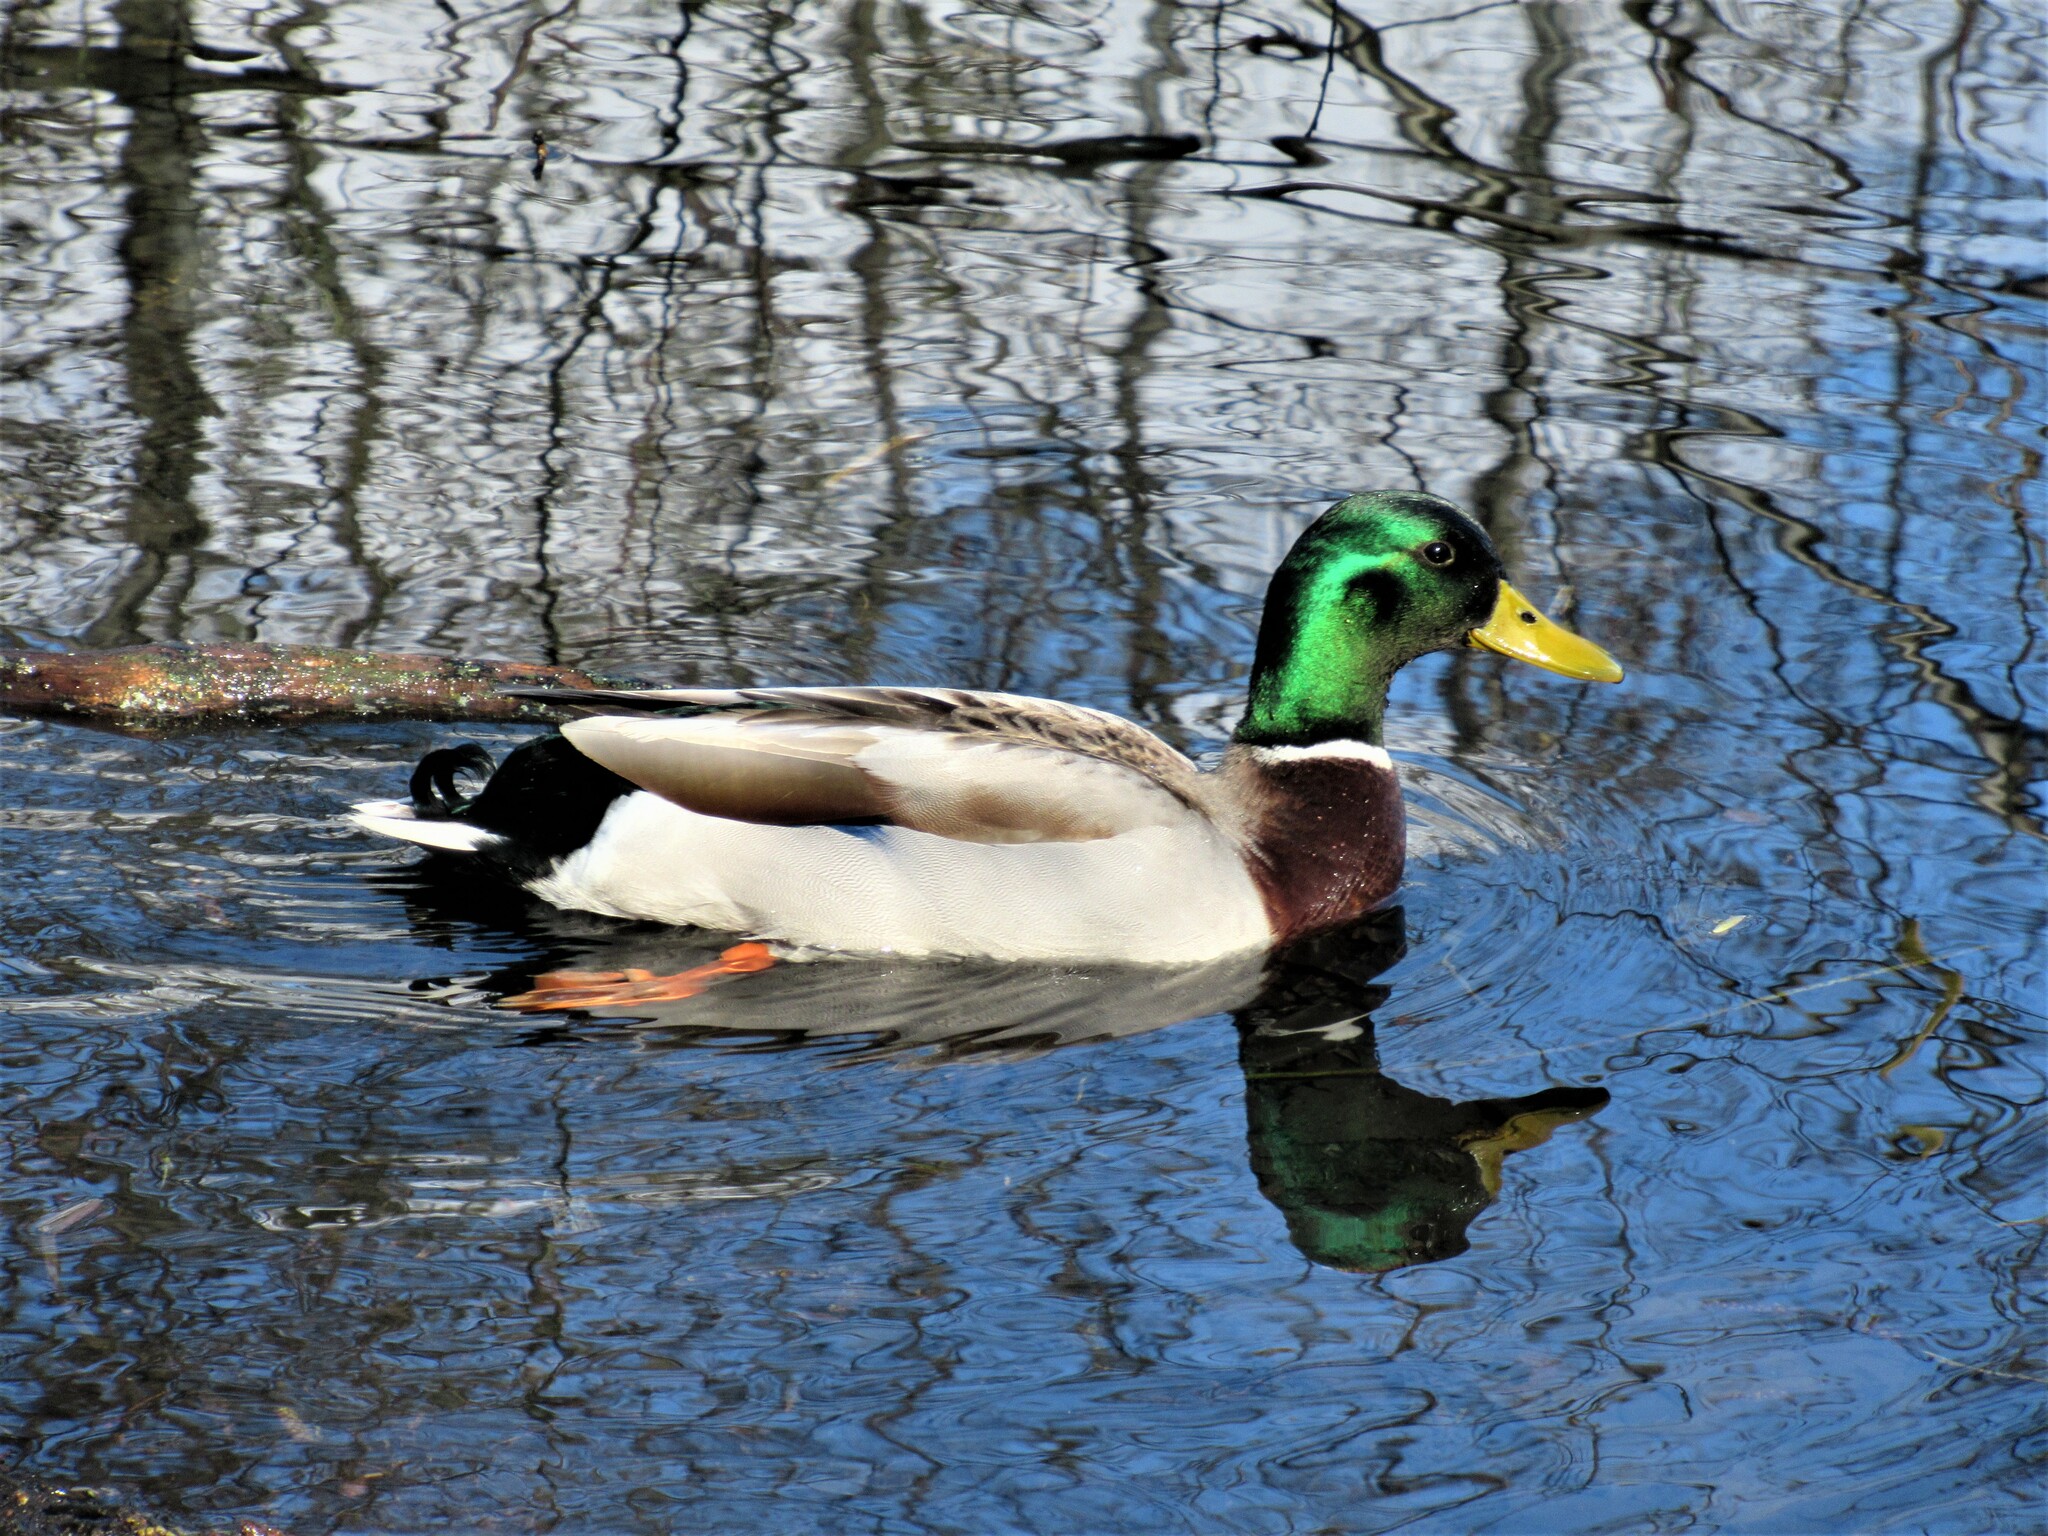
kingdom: Animalia
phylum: Chordata
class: Aves
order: Anseriformes
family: Anatidae
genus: Anas
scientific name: Anas platyrhynchos
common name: Mallard
